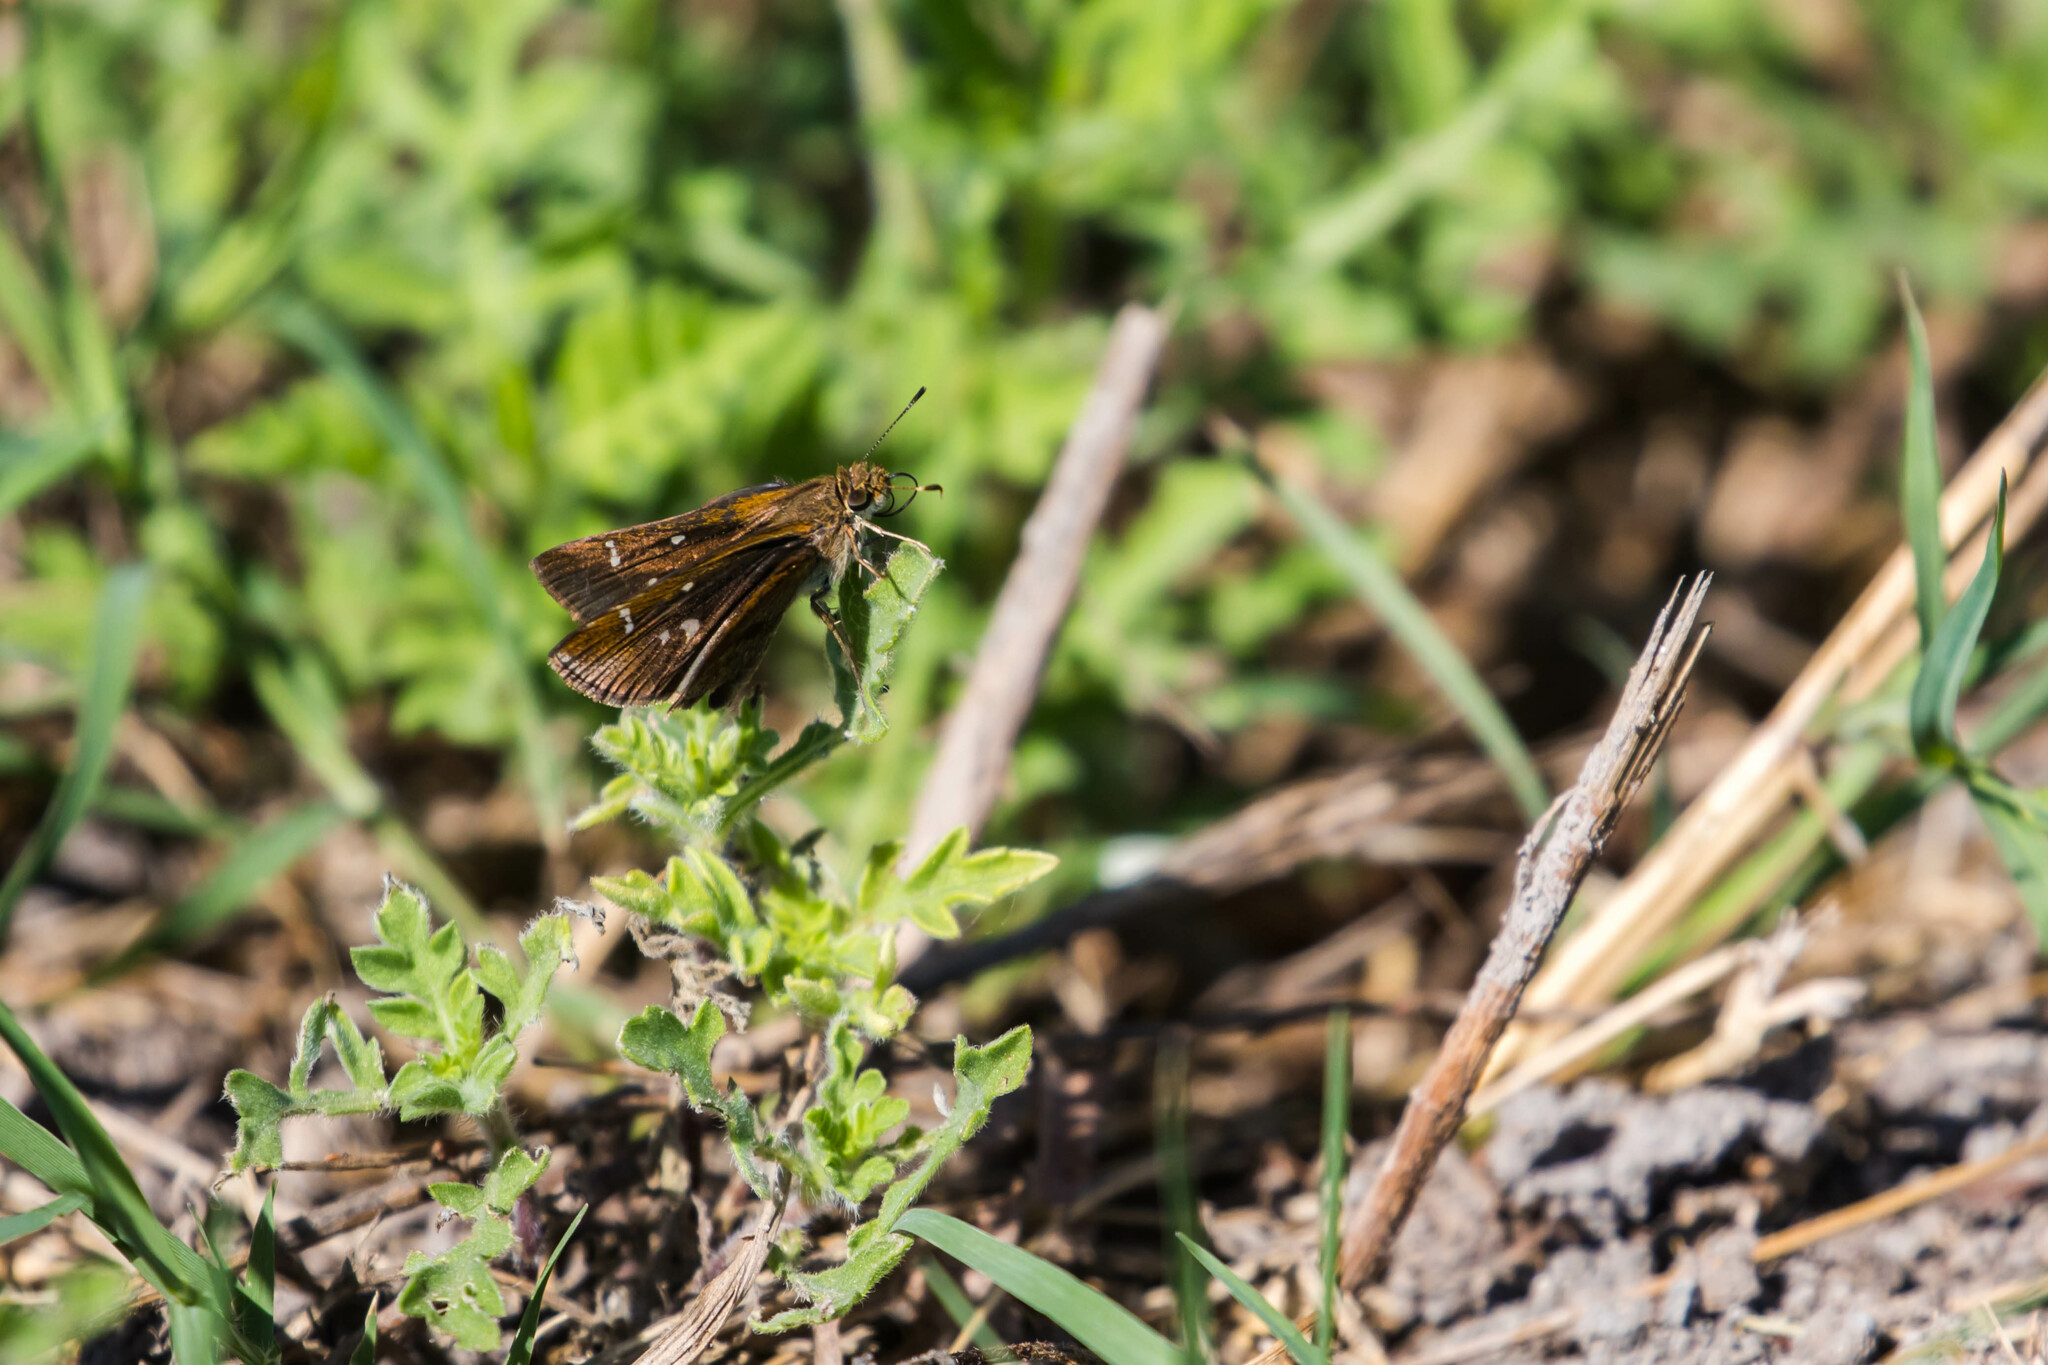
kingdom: Animalia
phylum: Arthropoda
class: Insecta
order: Lepidoptera
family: Hesperiidae
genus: Lerema
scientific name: Lerema accius
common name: Clouded skipper
